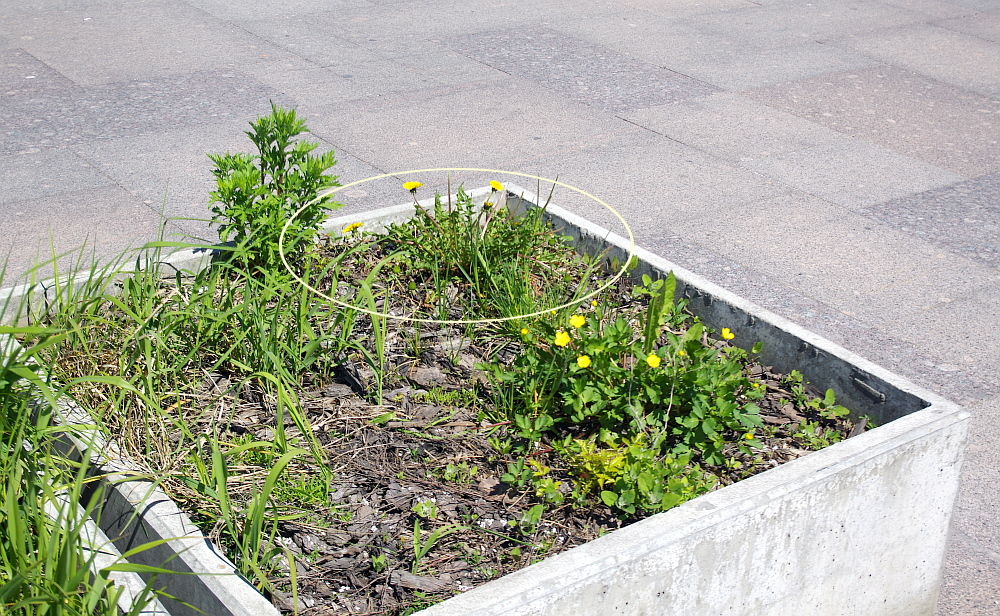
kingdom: Plantae
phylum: Tracheophyta
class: Magnoliopsida
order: Asterales
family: Asteraceae
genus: Taraxacum
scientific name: Taraxacum officinale
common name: Common dandelion
